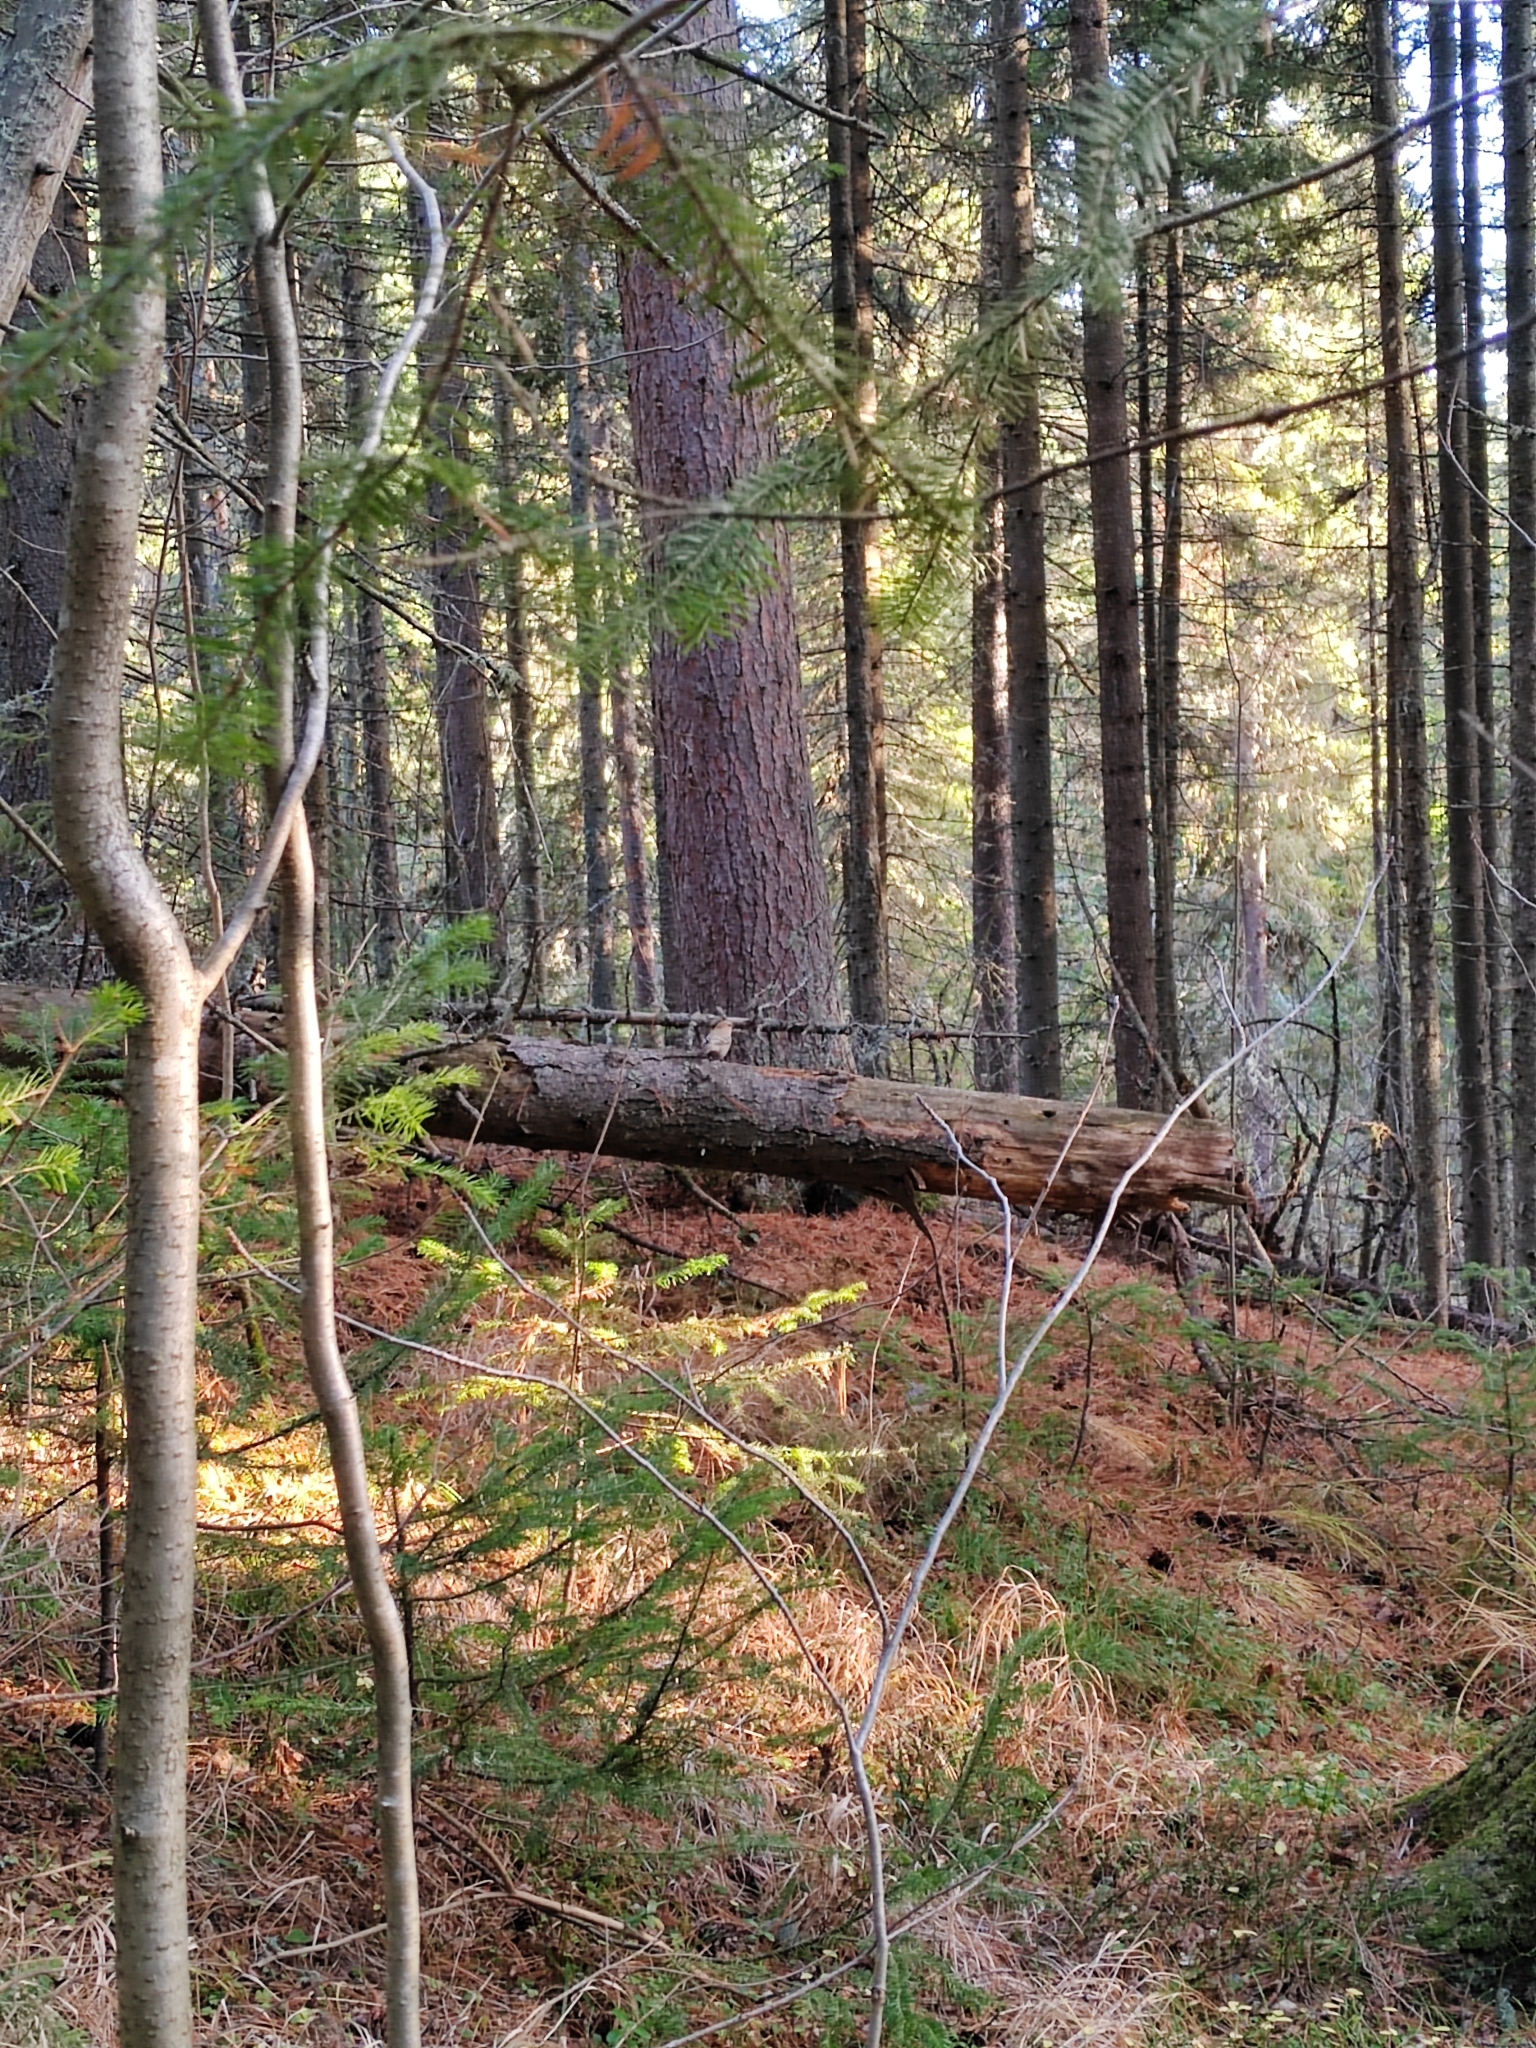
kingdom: Animalia
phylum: Chordata
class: Aves
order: Passeriformes
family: Fringillidae
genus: Pinicola
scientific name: Pinicola enucleator
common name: Pine grosbeak
